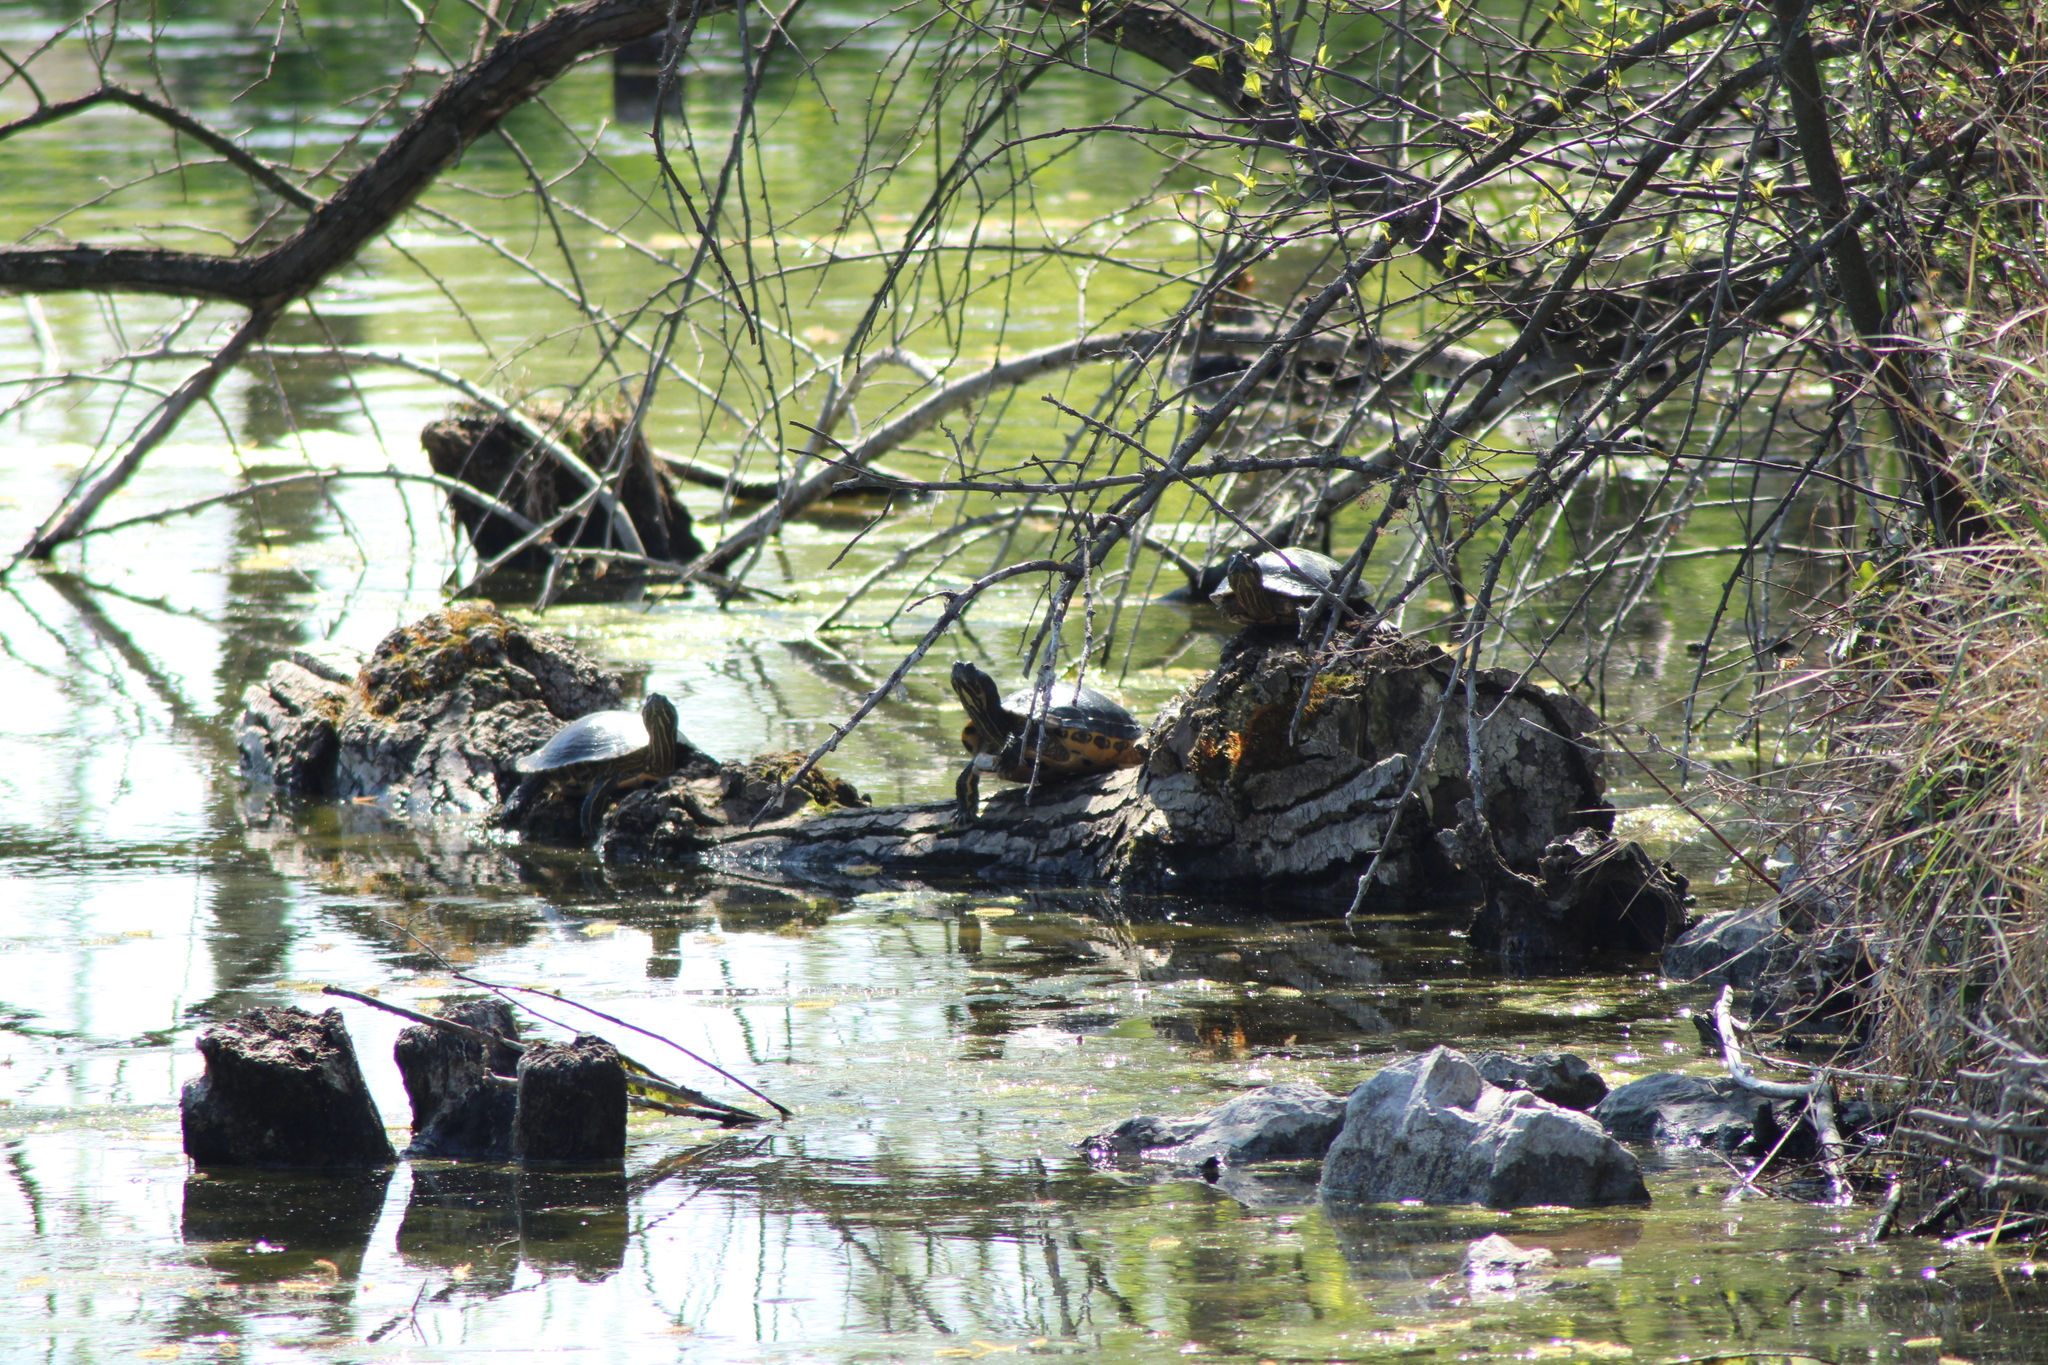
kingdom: Animalia
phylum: Chordata
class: Testudines
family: Emydidae
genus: Trachemys
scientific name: Trachemys scripta
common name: Slider
